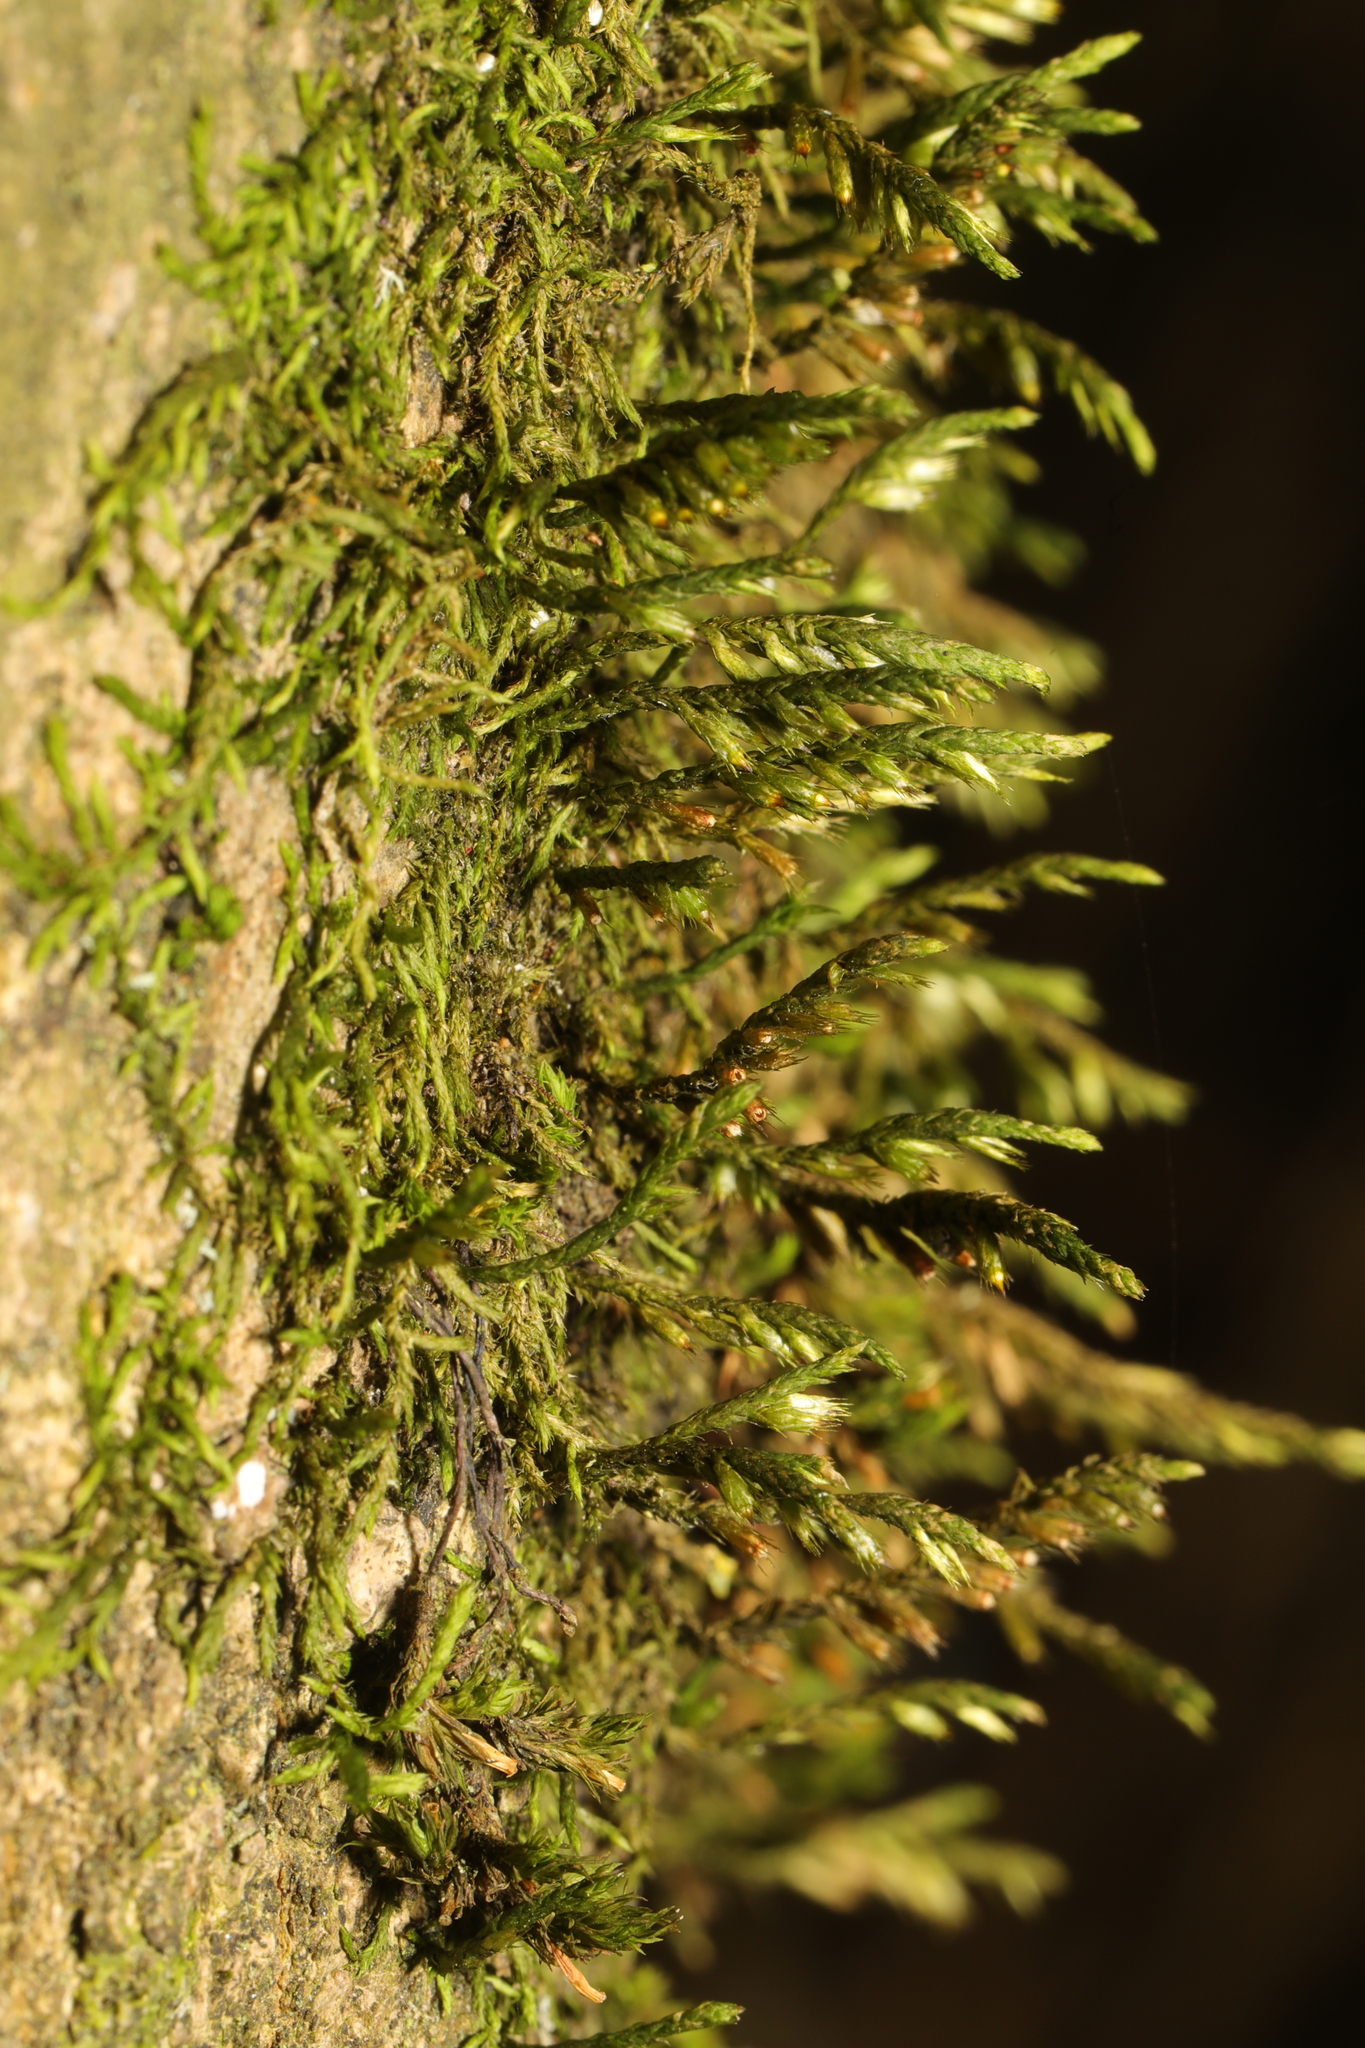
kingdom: Plantae
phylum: Bryophyta
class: Bryopsida
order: Hypnales
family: Cryphaeaceae
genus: Cryphaea
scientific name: Cryphaea heteromalla
